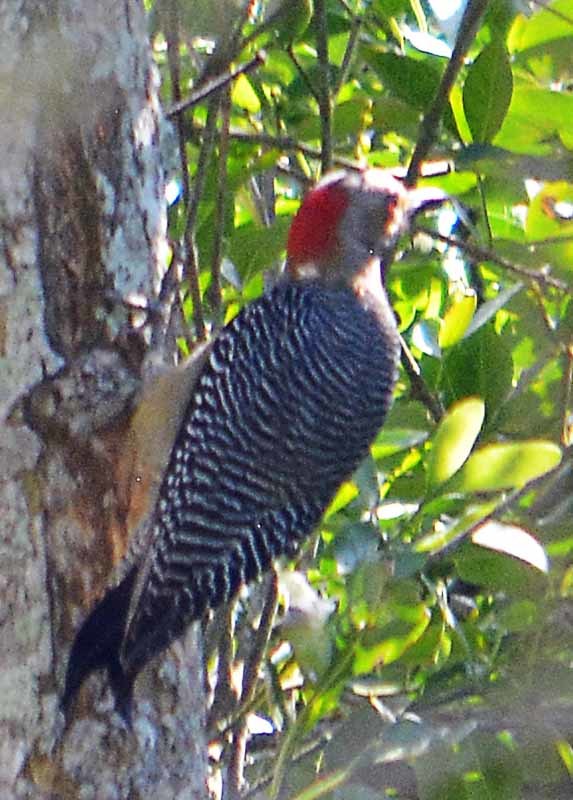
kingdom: Animalia
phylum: Chordata
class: Aves
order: Piciformes
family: Picidae
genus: Melanerpes
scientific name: Melanerpes aurifrons
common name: Golden-fronted woodpecker
